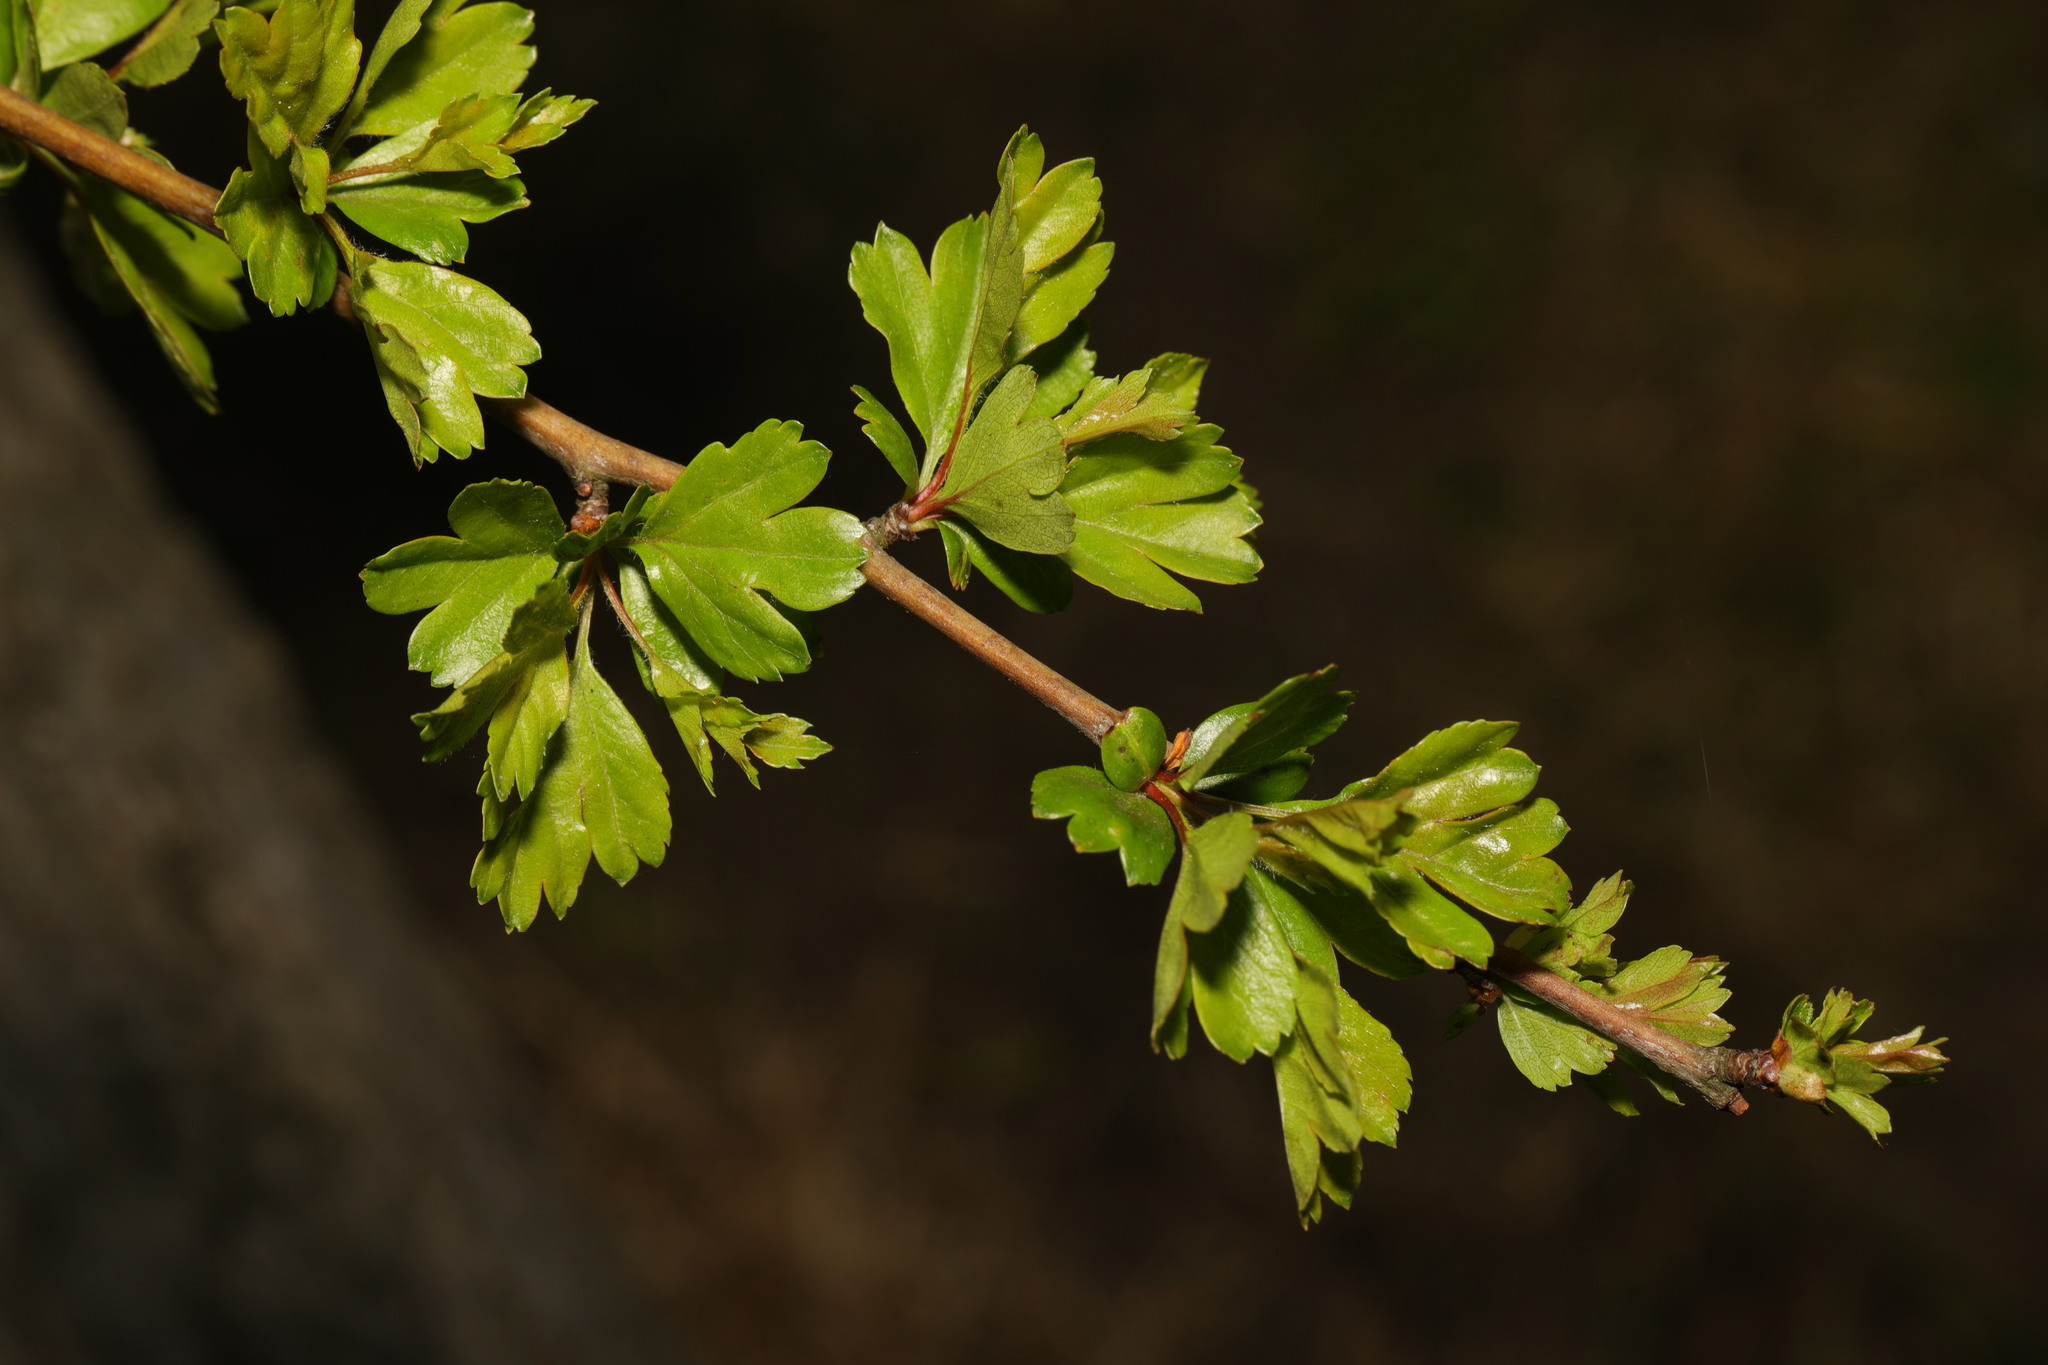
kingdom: Plantae
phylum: Tracheophyta
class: Magnoliopsida
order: Rosales
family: Rosaceae
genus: Crataegus
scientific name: Crataegus monogyna
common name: Hawthorn
